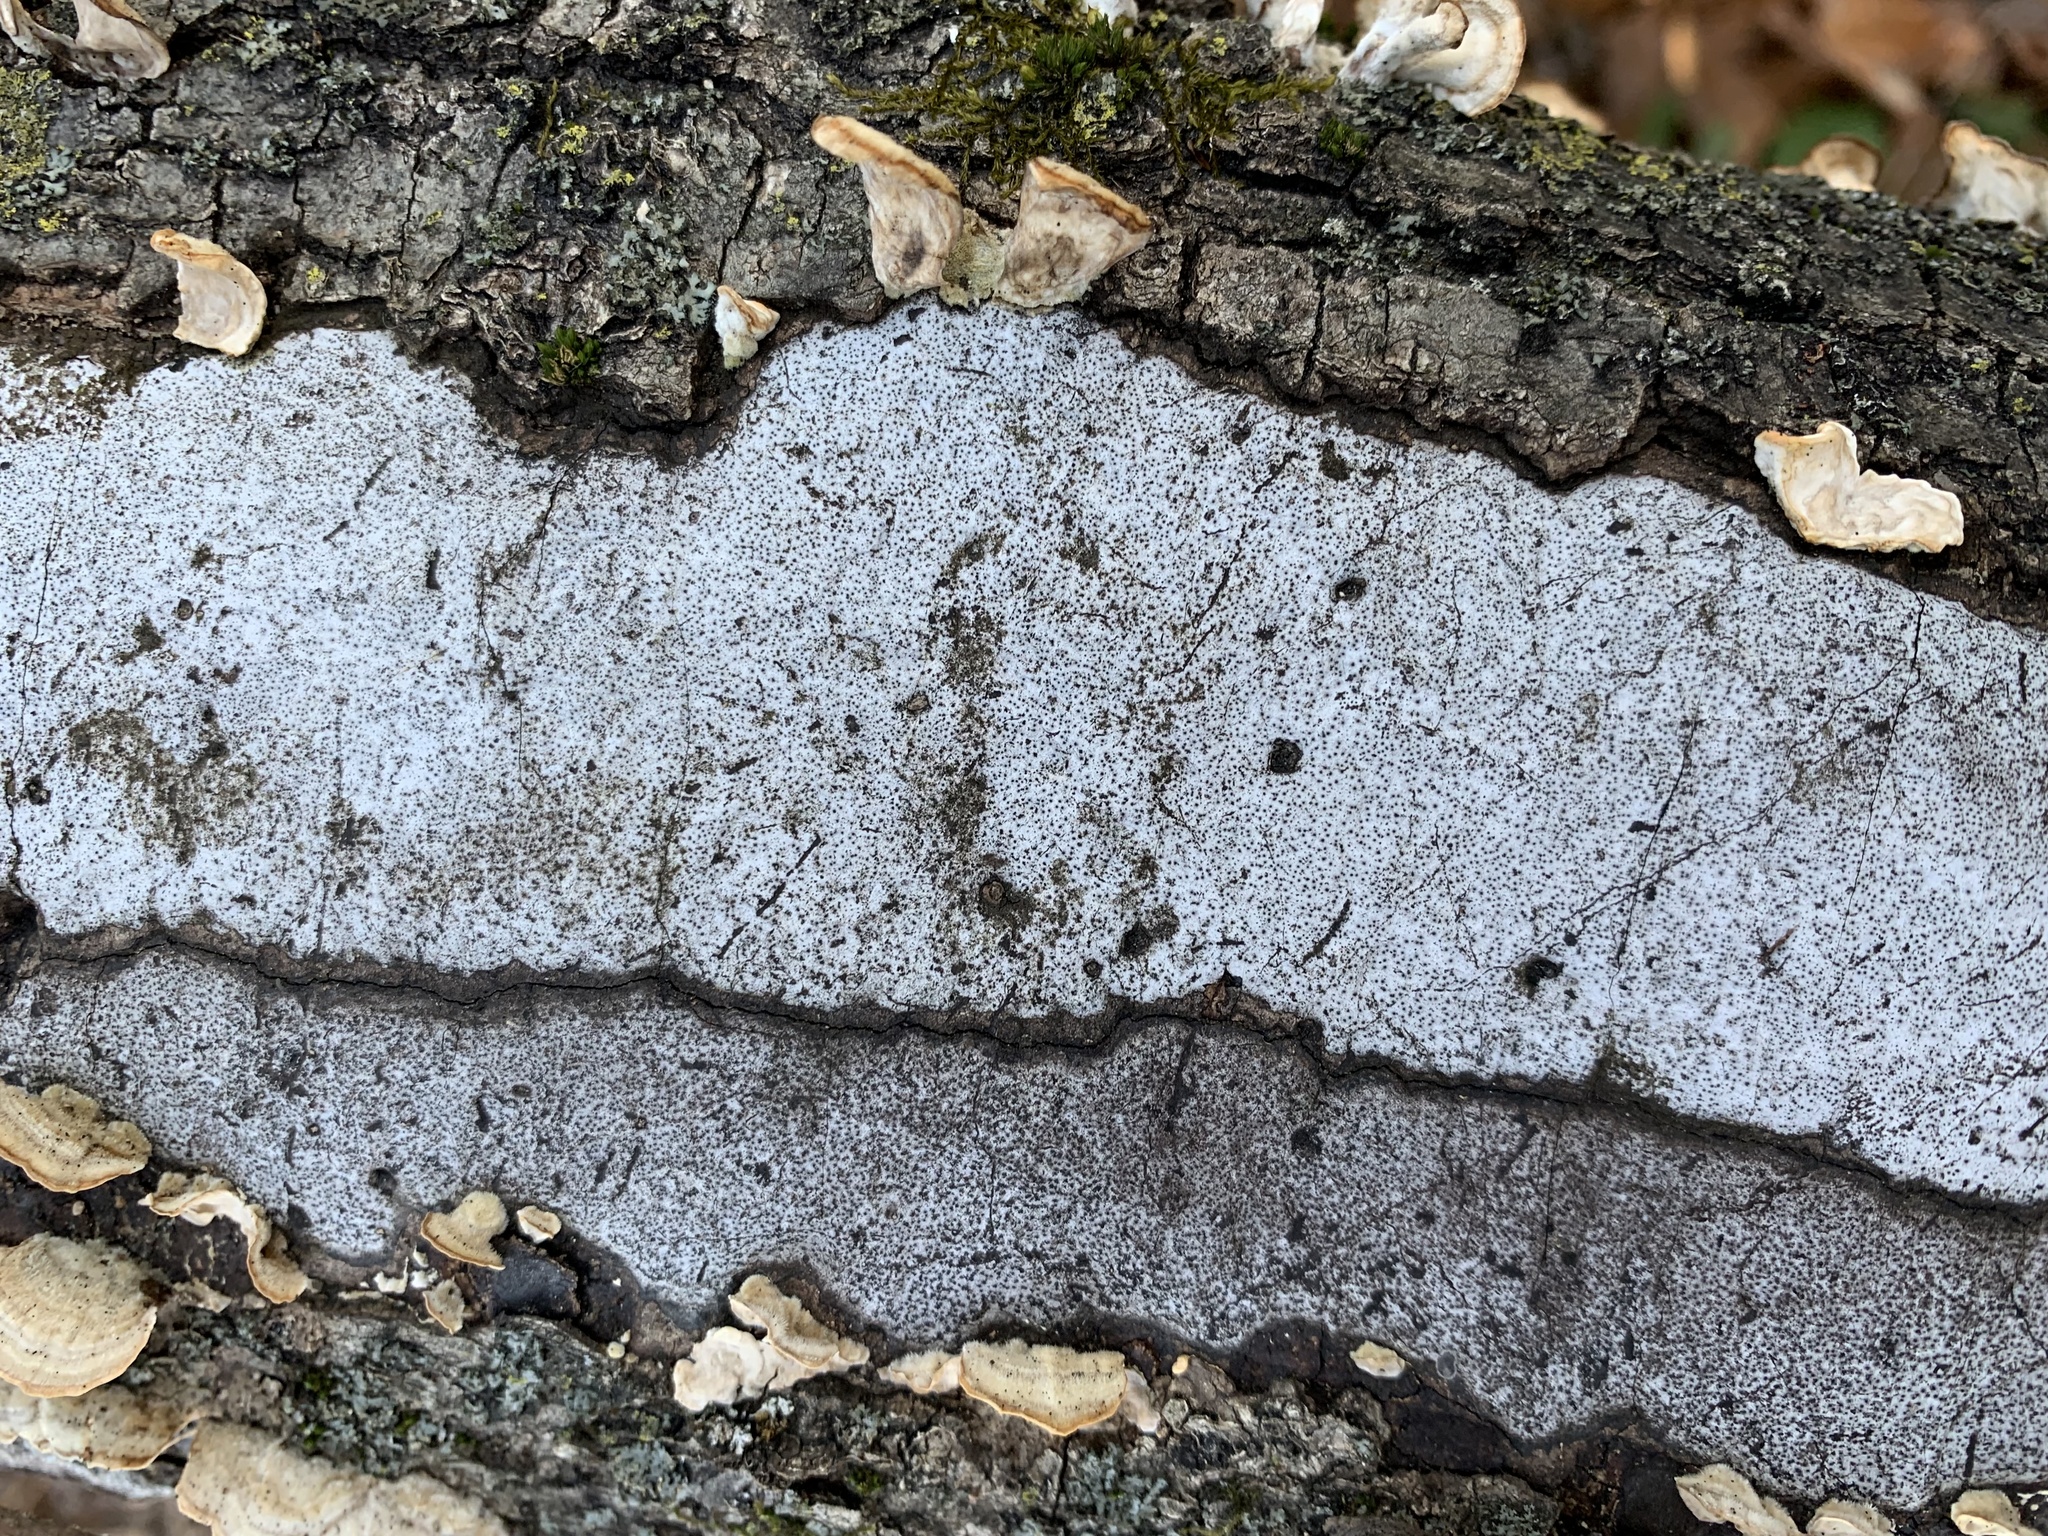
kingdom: Fungi
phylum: Ascomycota
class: Sordariomycetes
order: Xylariales
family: Graphostromataceae
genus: Biscogniauxia
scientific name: Biscogniauxia atropunctata
